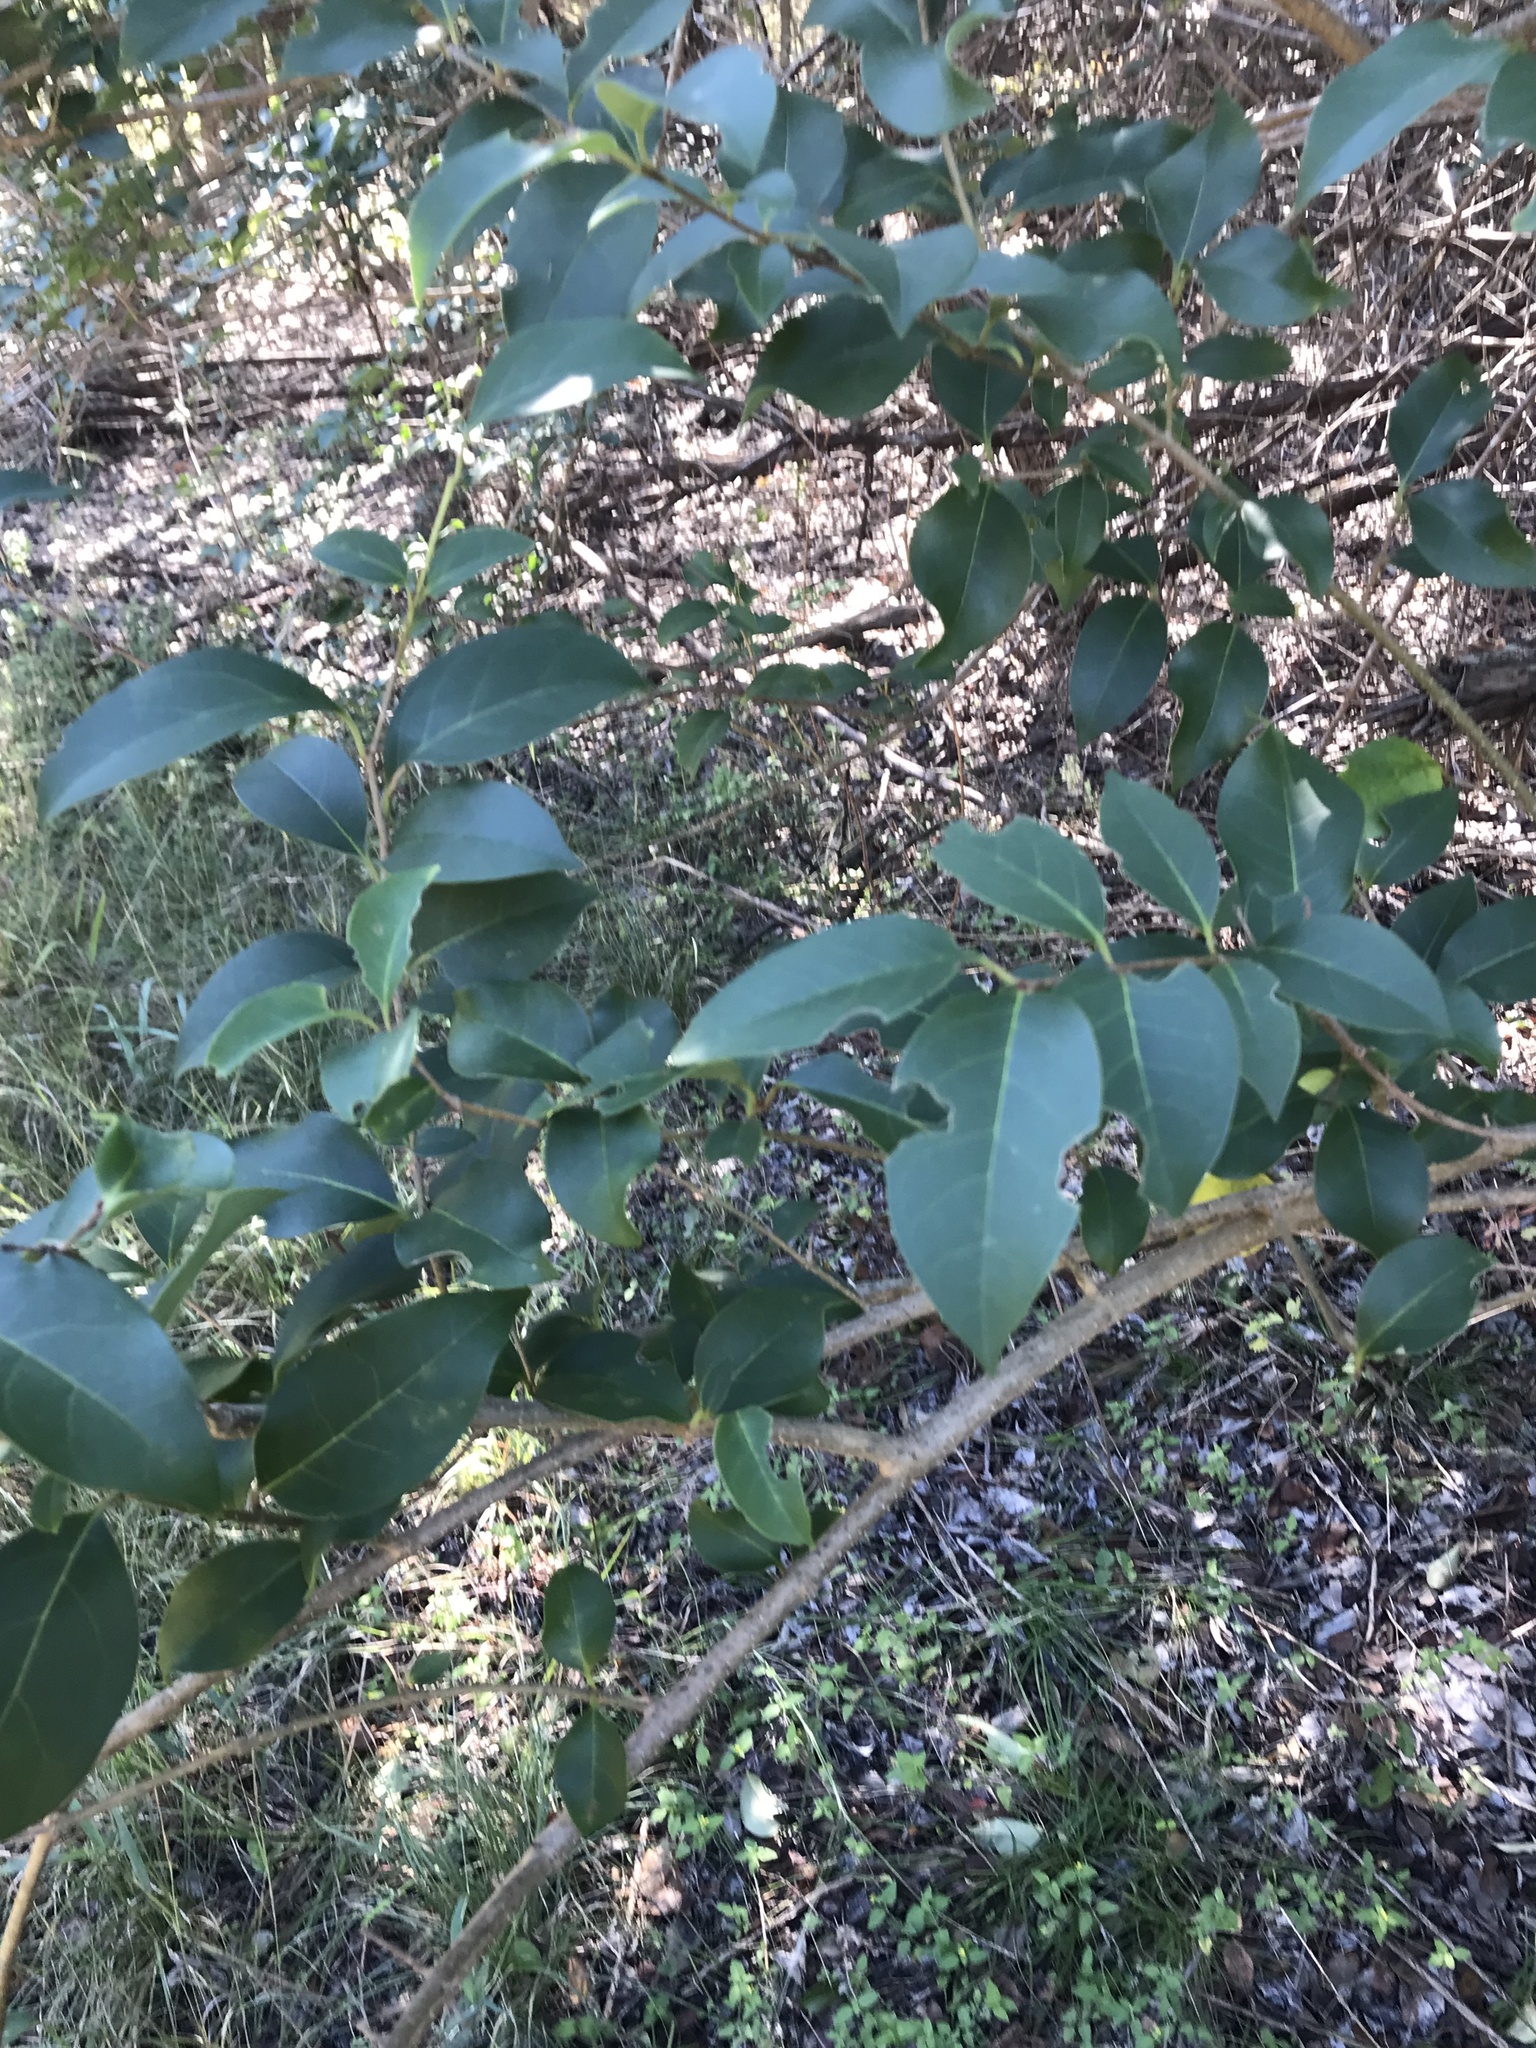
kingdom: Plantae
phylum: Tracheophyta
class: Magnoliopsida
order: Lamiales
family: Oleaceae
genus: Ligustrum
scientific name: Ligustrum lucidum
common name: Glossy privet
